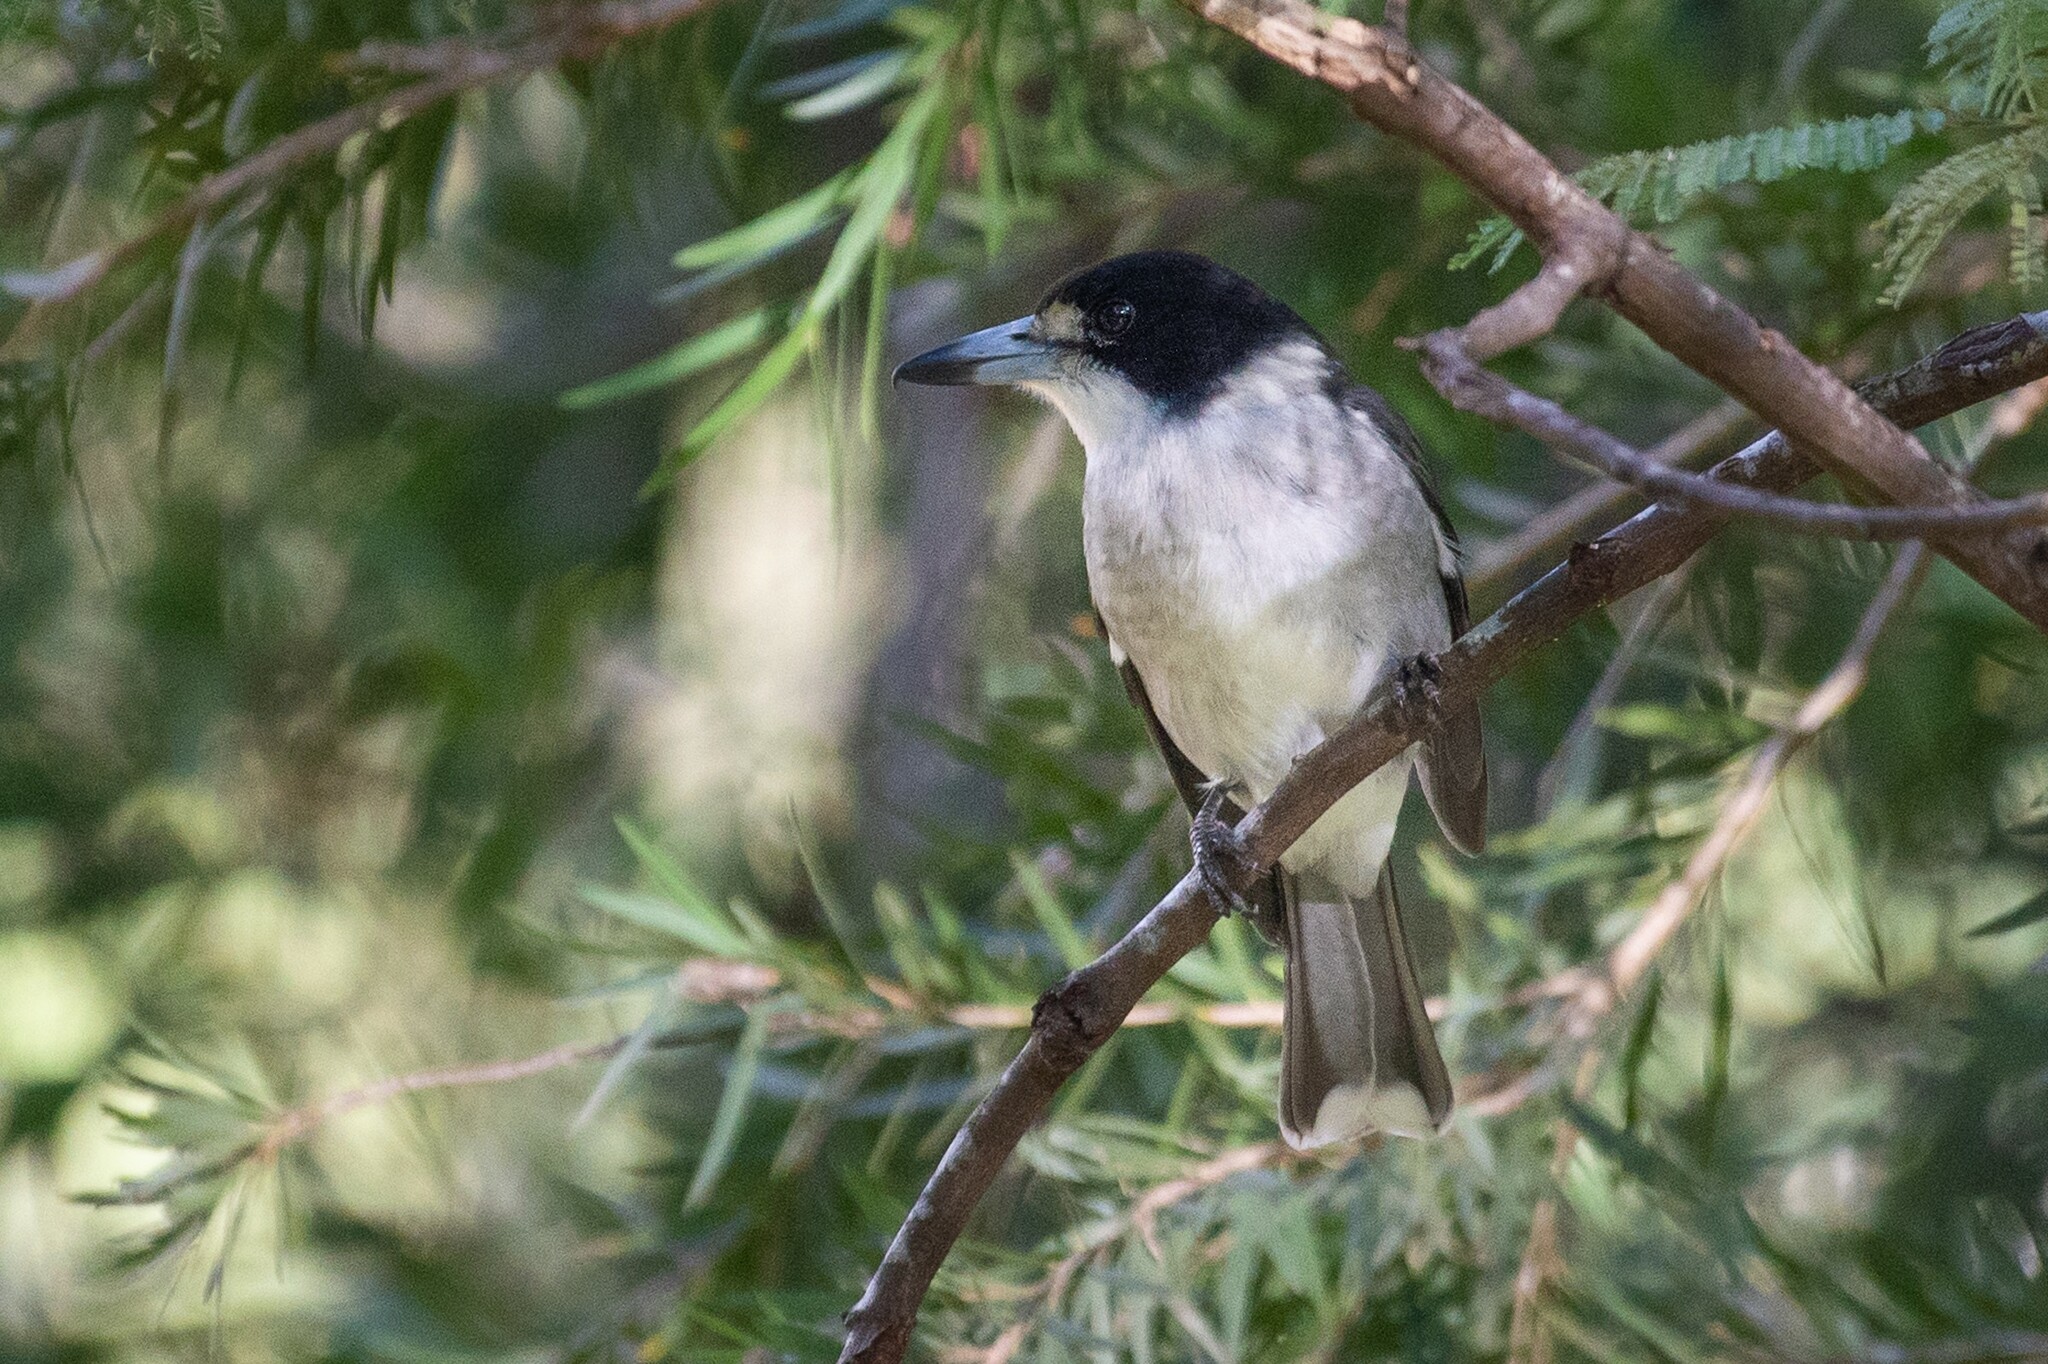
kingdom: Animalia
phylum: Chordata
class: Aves
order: Passeriformes
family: Cracticidae
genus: Cracticus
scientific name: Cracticus torquatus
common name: Grey butcherbird
